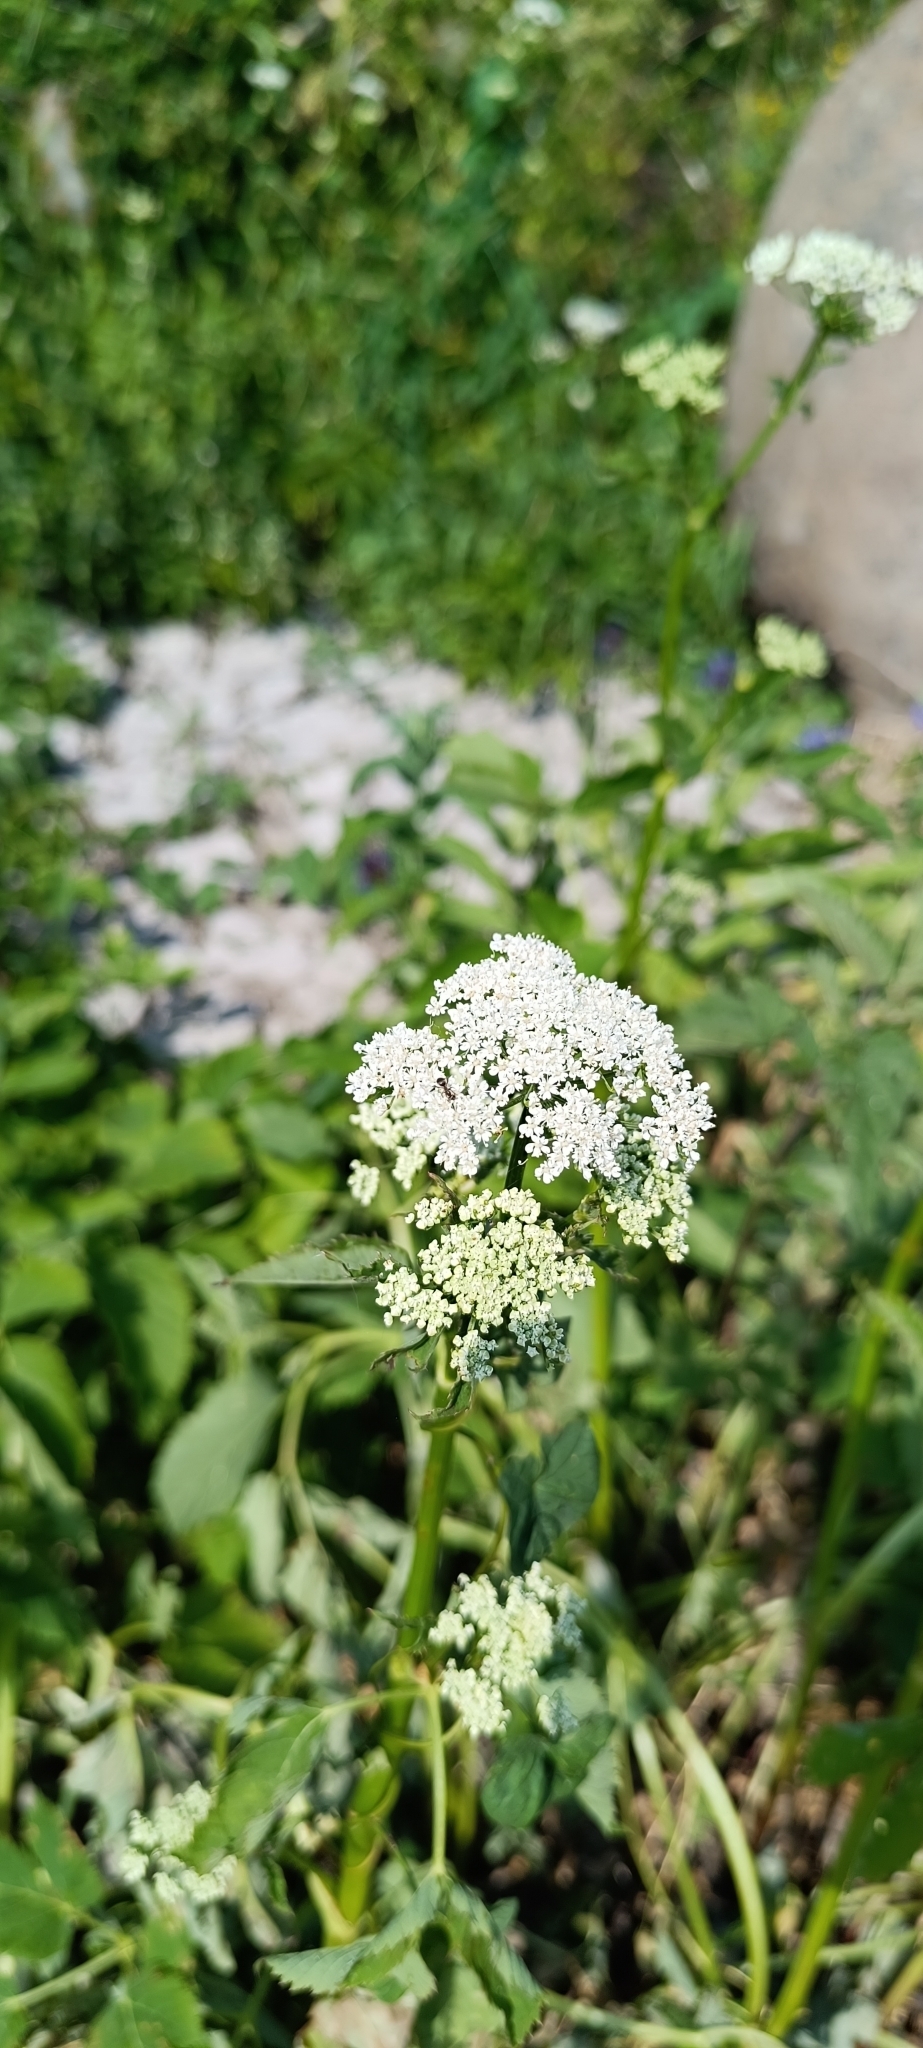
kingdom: Plantae
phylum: Tracheophyta
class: Magnoliopsida
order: Apiales
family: Apiaceae
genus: Aegopodium
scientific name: Aegopodium podagraria
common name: Ground-elder
